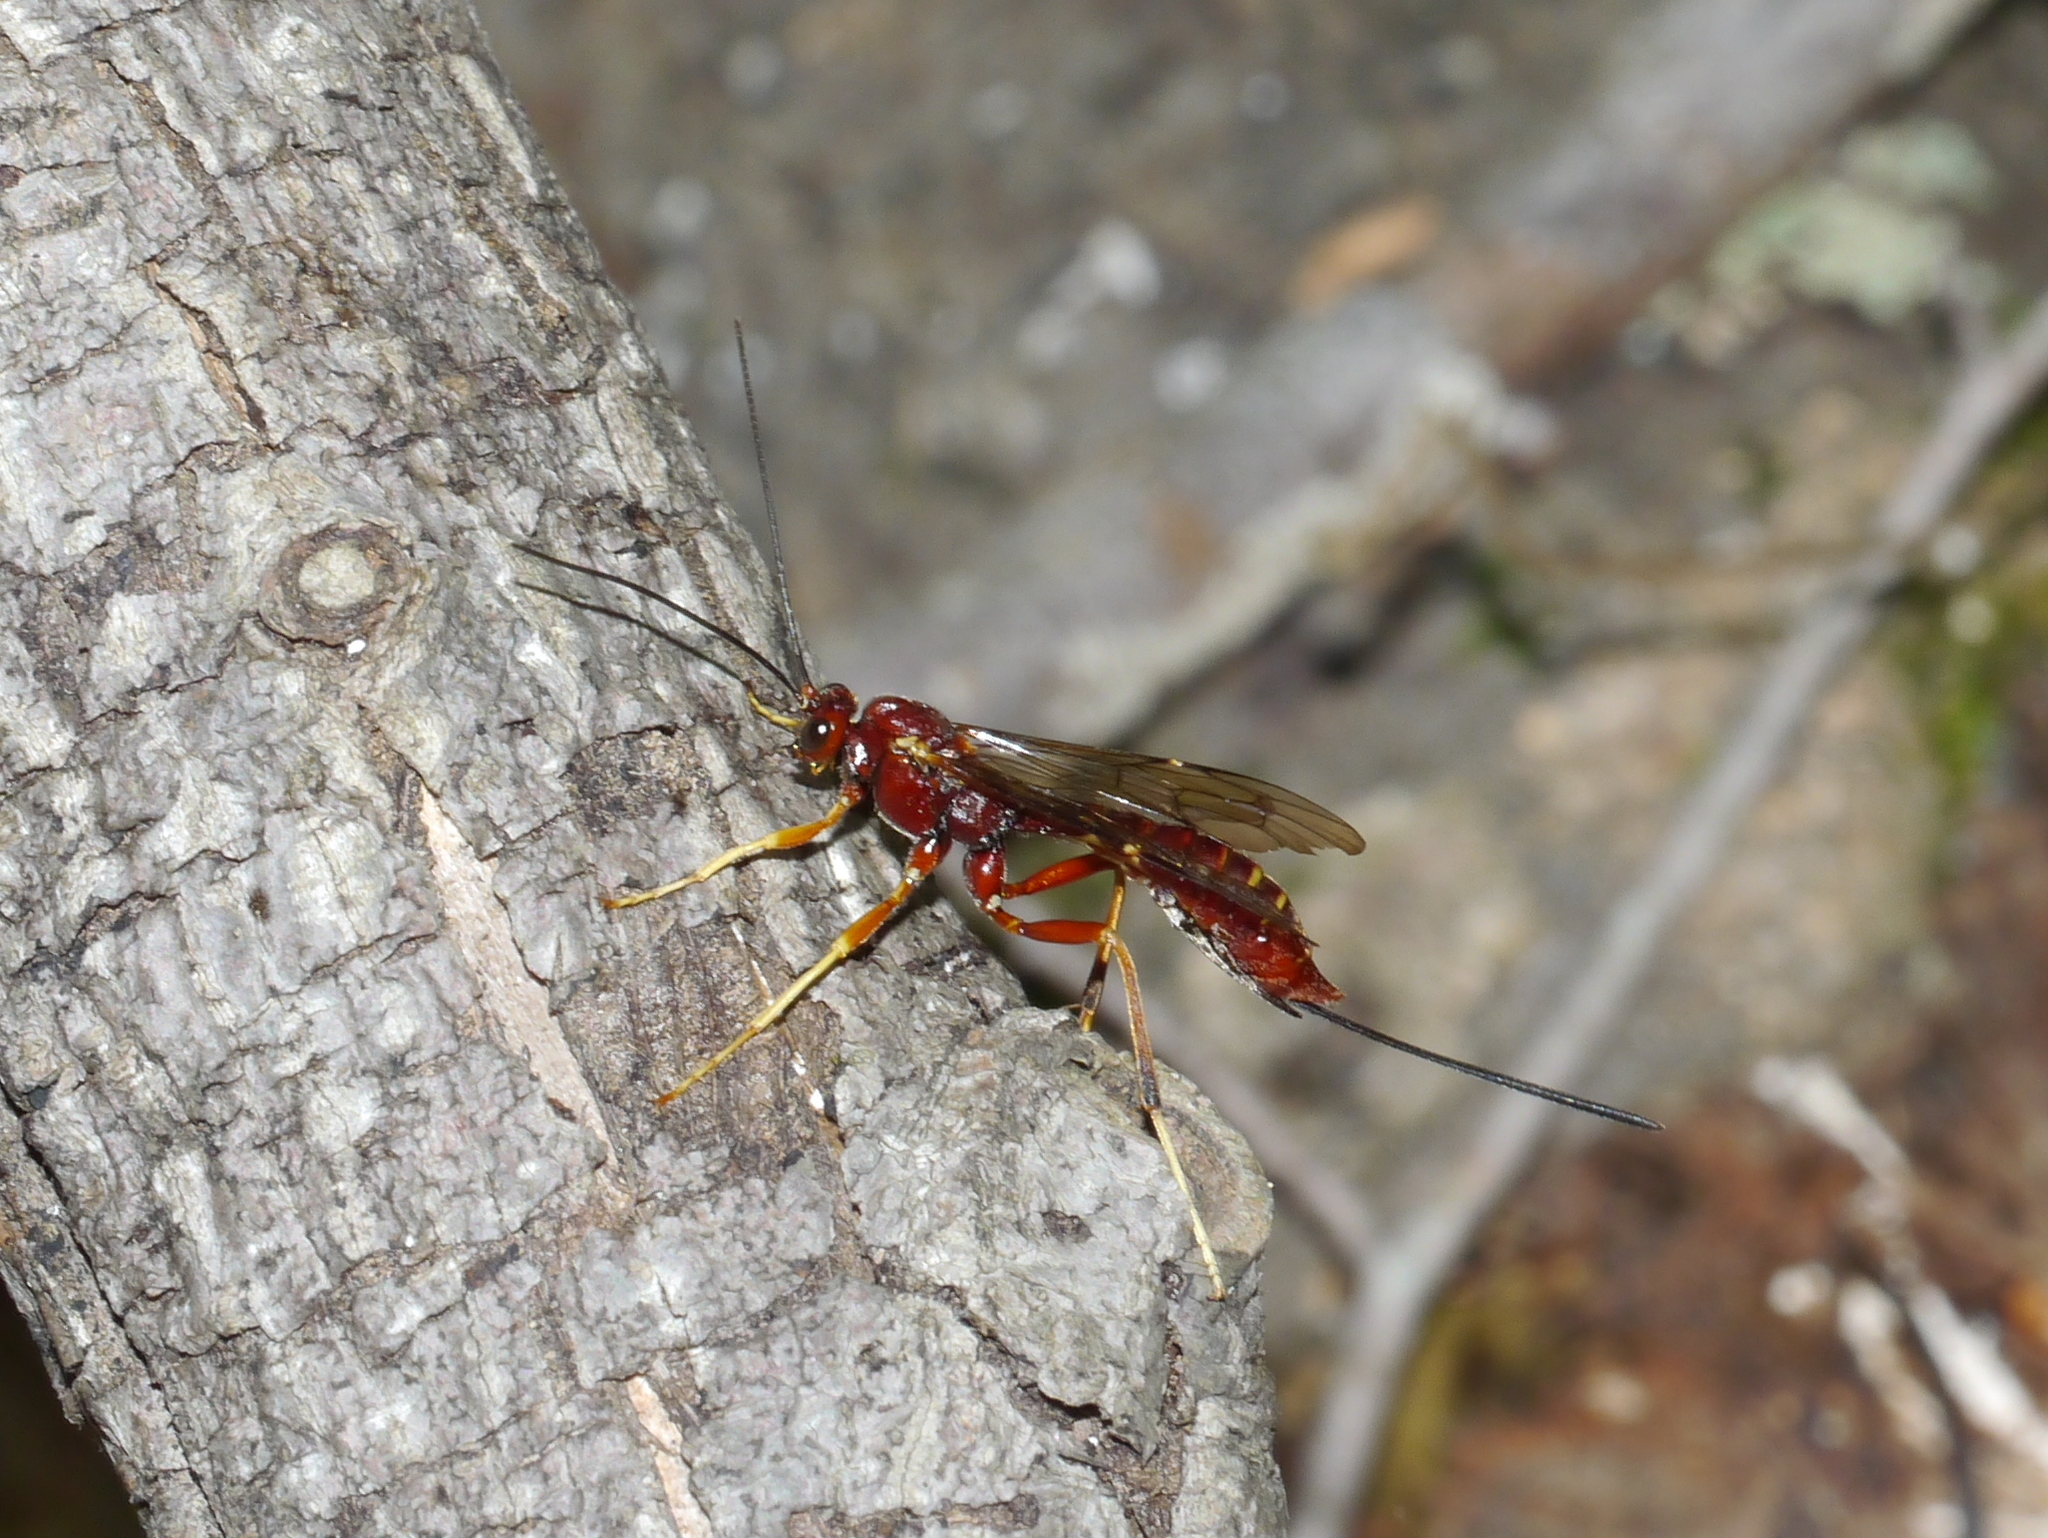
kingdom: Animalia
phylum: Arthropoda
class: Insecta
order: Hymenoptera
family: Ichneumonidae
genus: Coleocentrus
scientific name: Coleocentrus rufus
